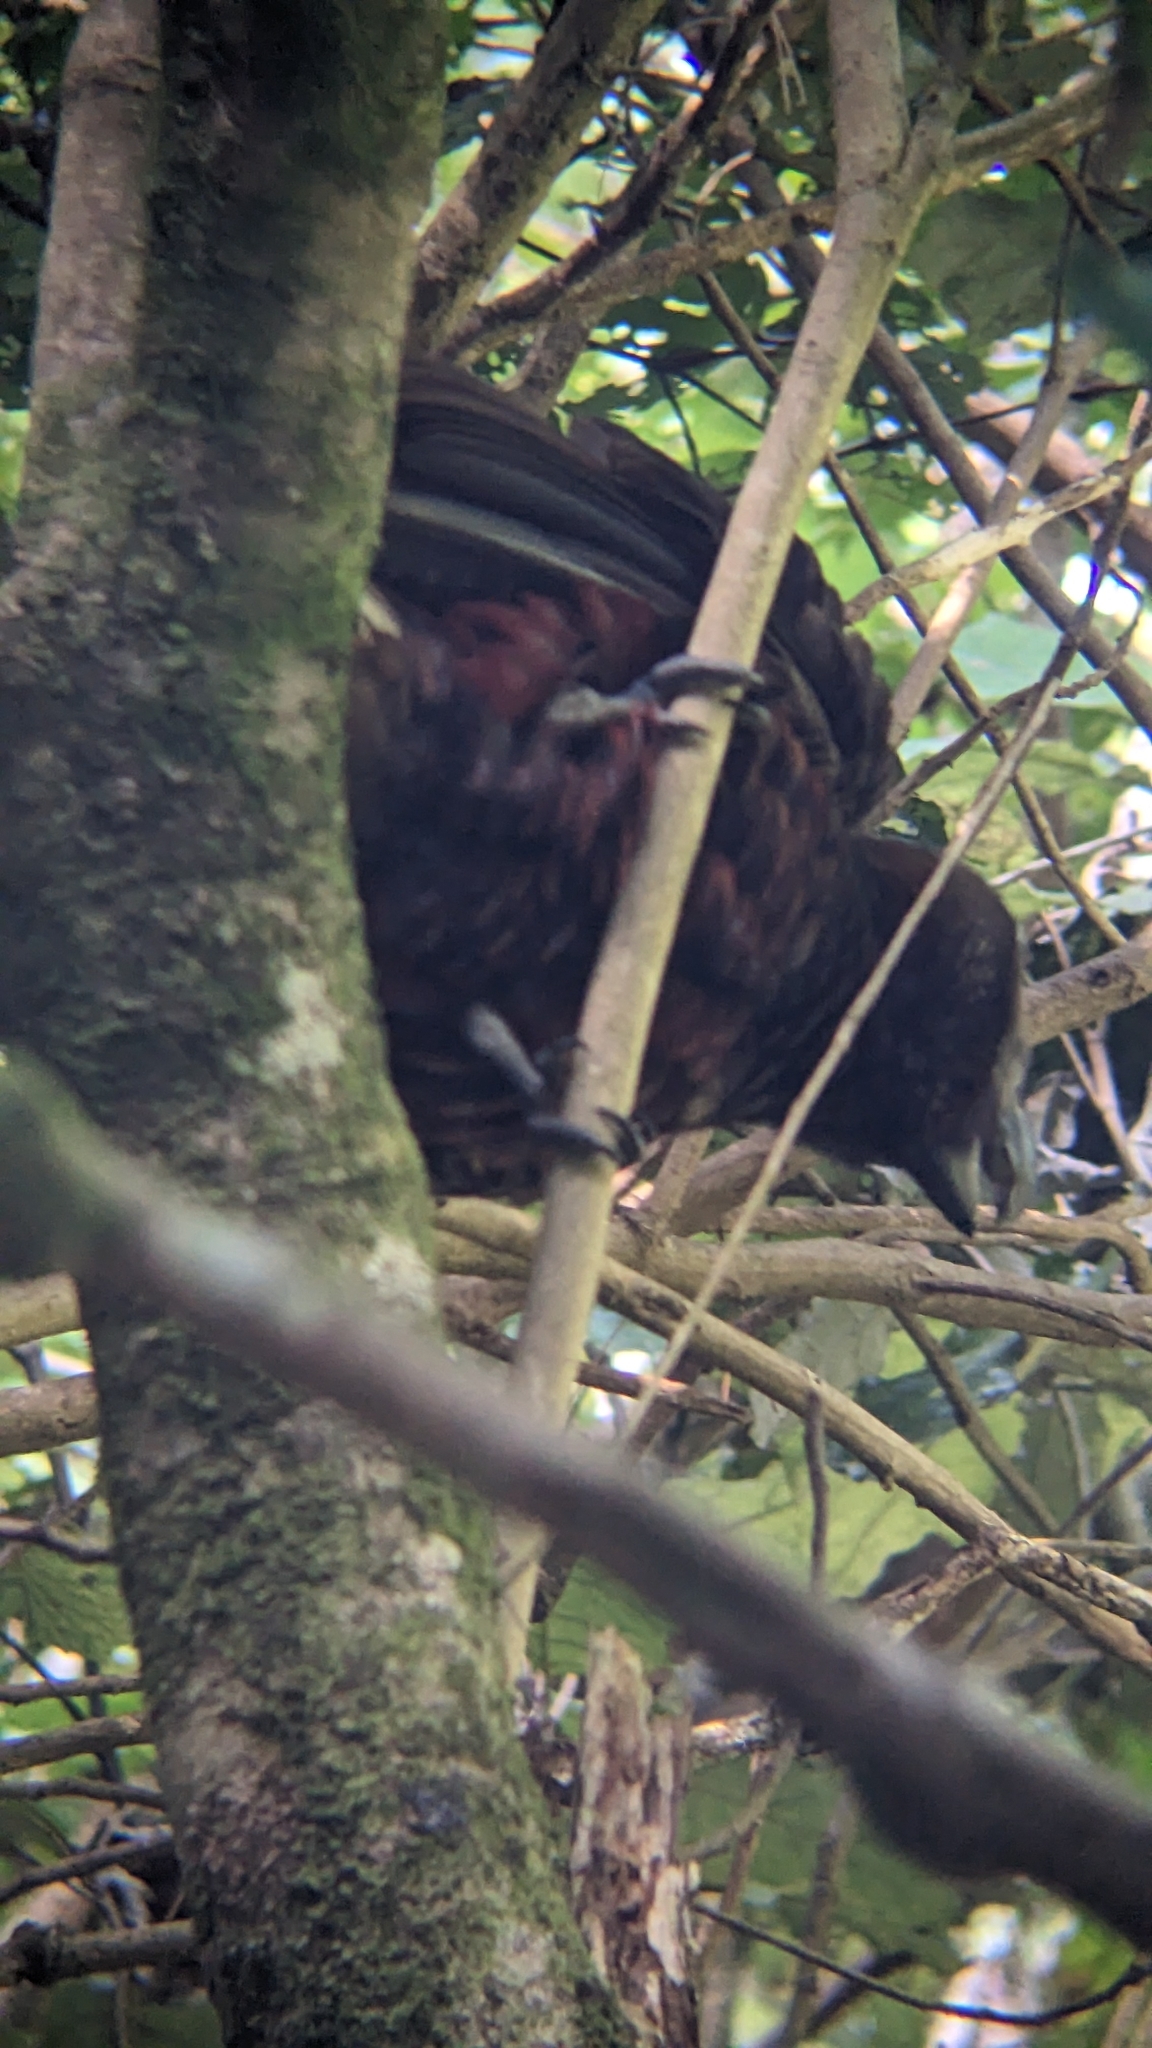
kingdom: Animalia
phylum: Chordata
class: Aves
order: Psittaciformes
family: Psittacidae
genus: Nestor
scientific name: Nestor meridionalis
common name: New zealand kaka
